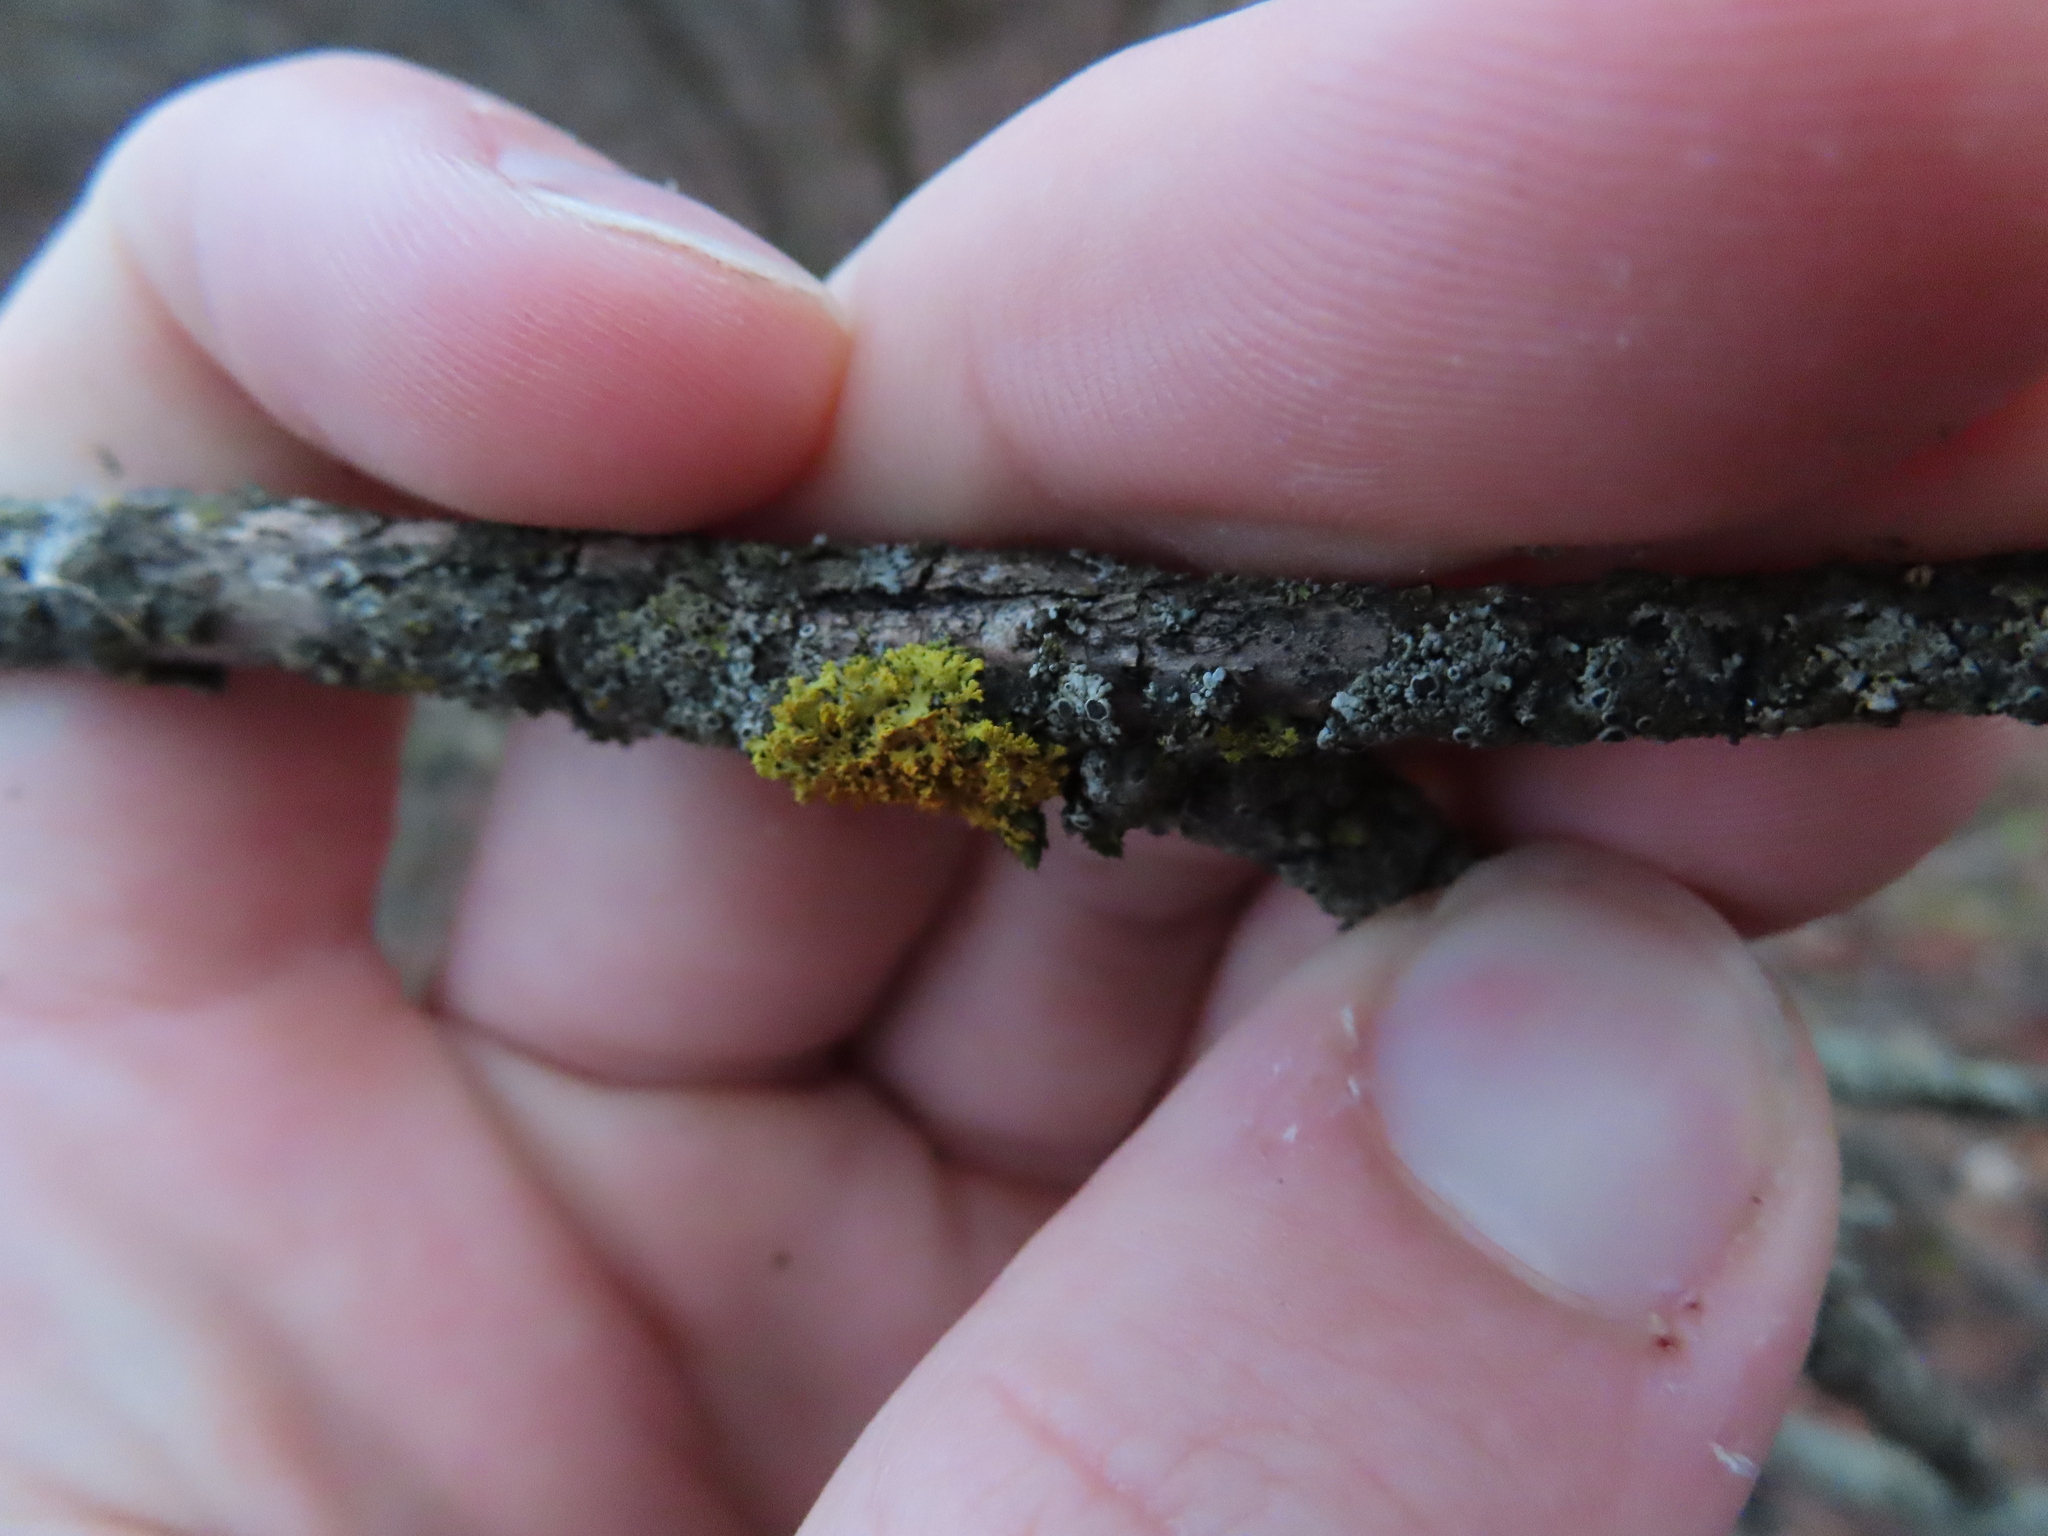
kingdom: Fungi
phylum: Ascomycota
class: Lecanoromycetes
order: Teloschistales
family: Teloschistaceae
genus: Gallowayella
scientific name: Gallowayella weberi
